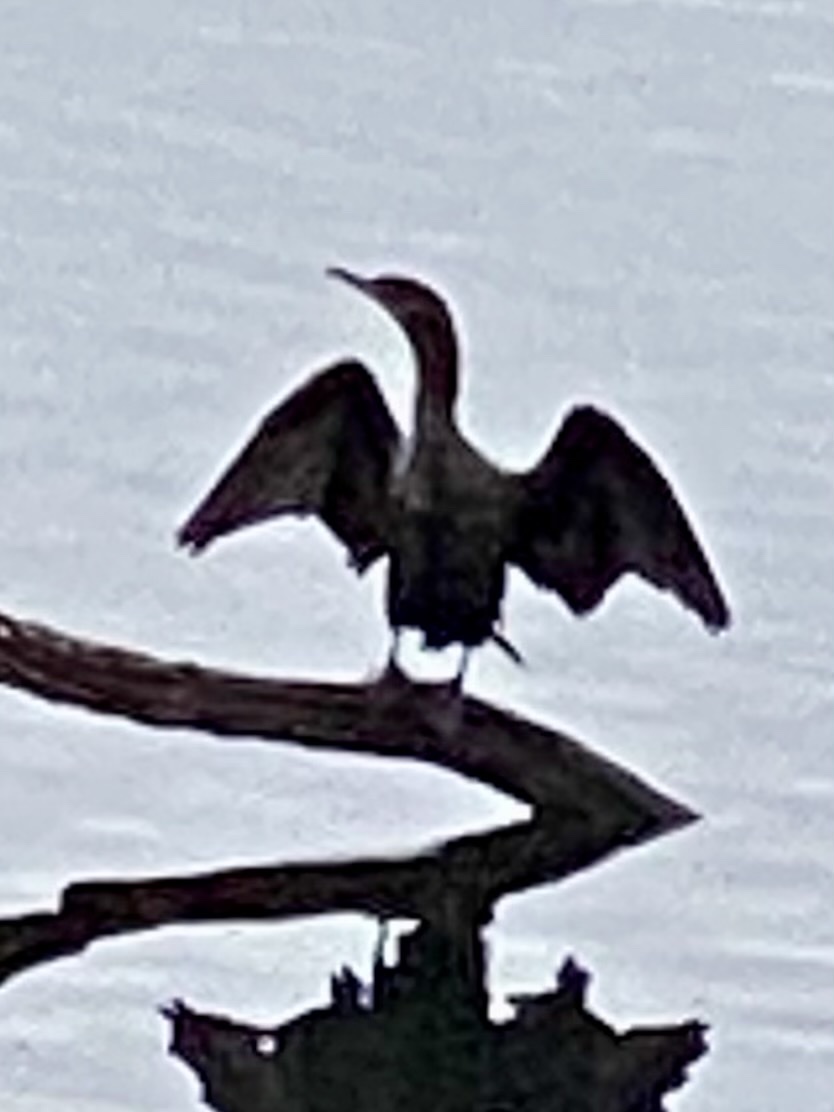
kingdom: Animalia
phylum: Chordata
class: Aves
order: Suliformes
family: Phalacrocoracidae
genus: Phalacrocorax
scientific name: Phalacrocorax auritus
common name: Double-crested cormorant
